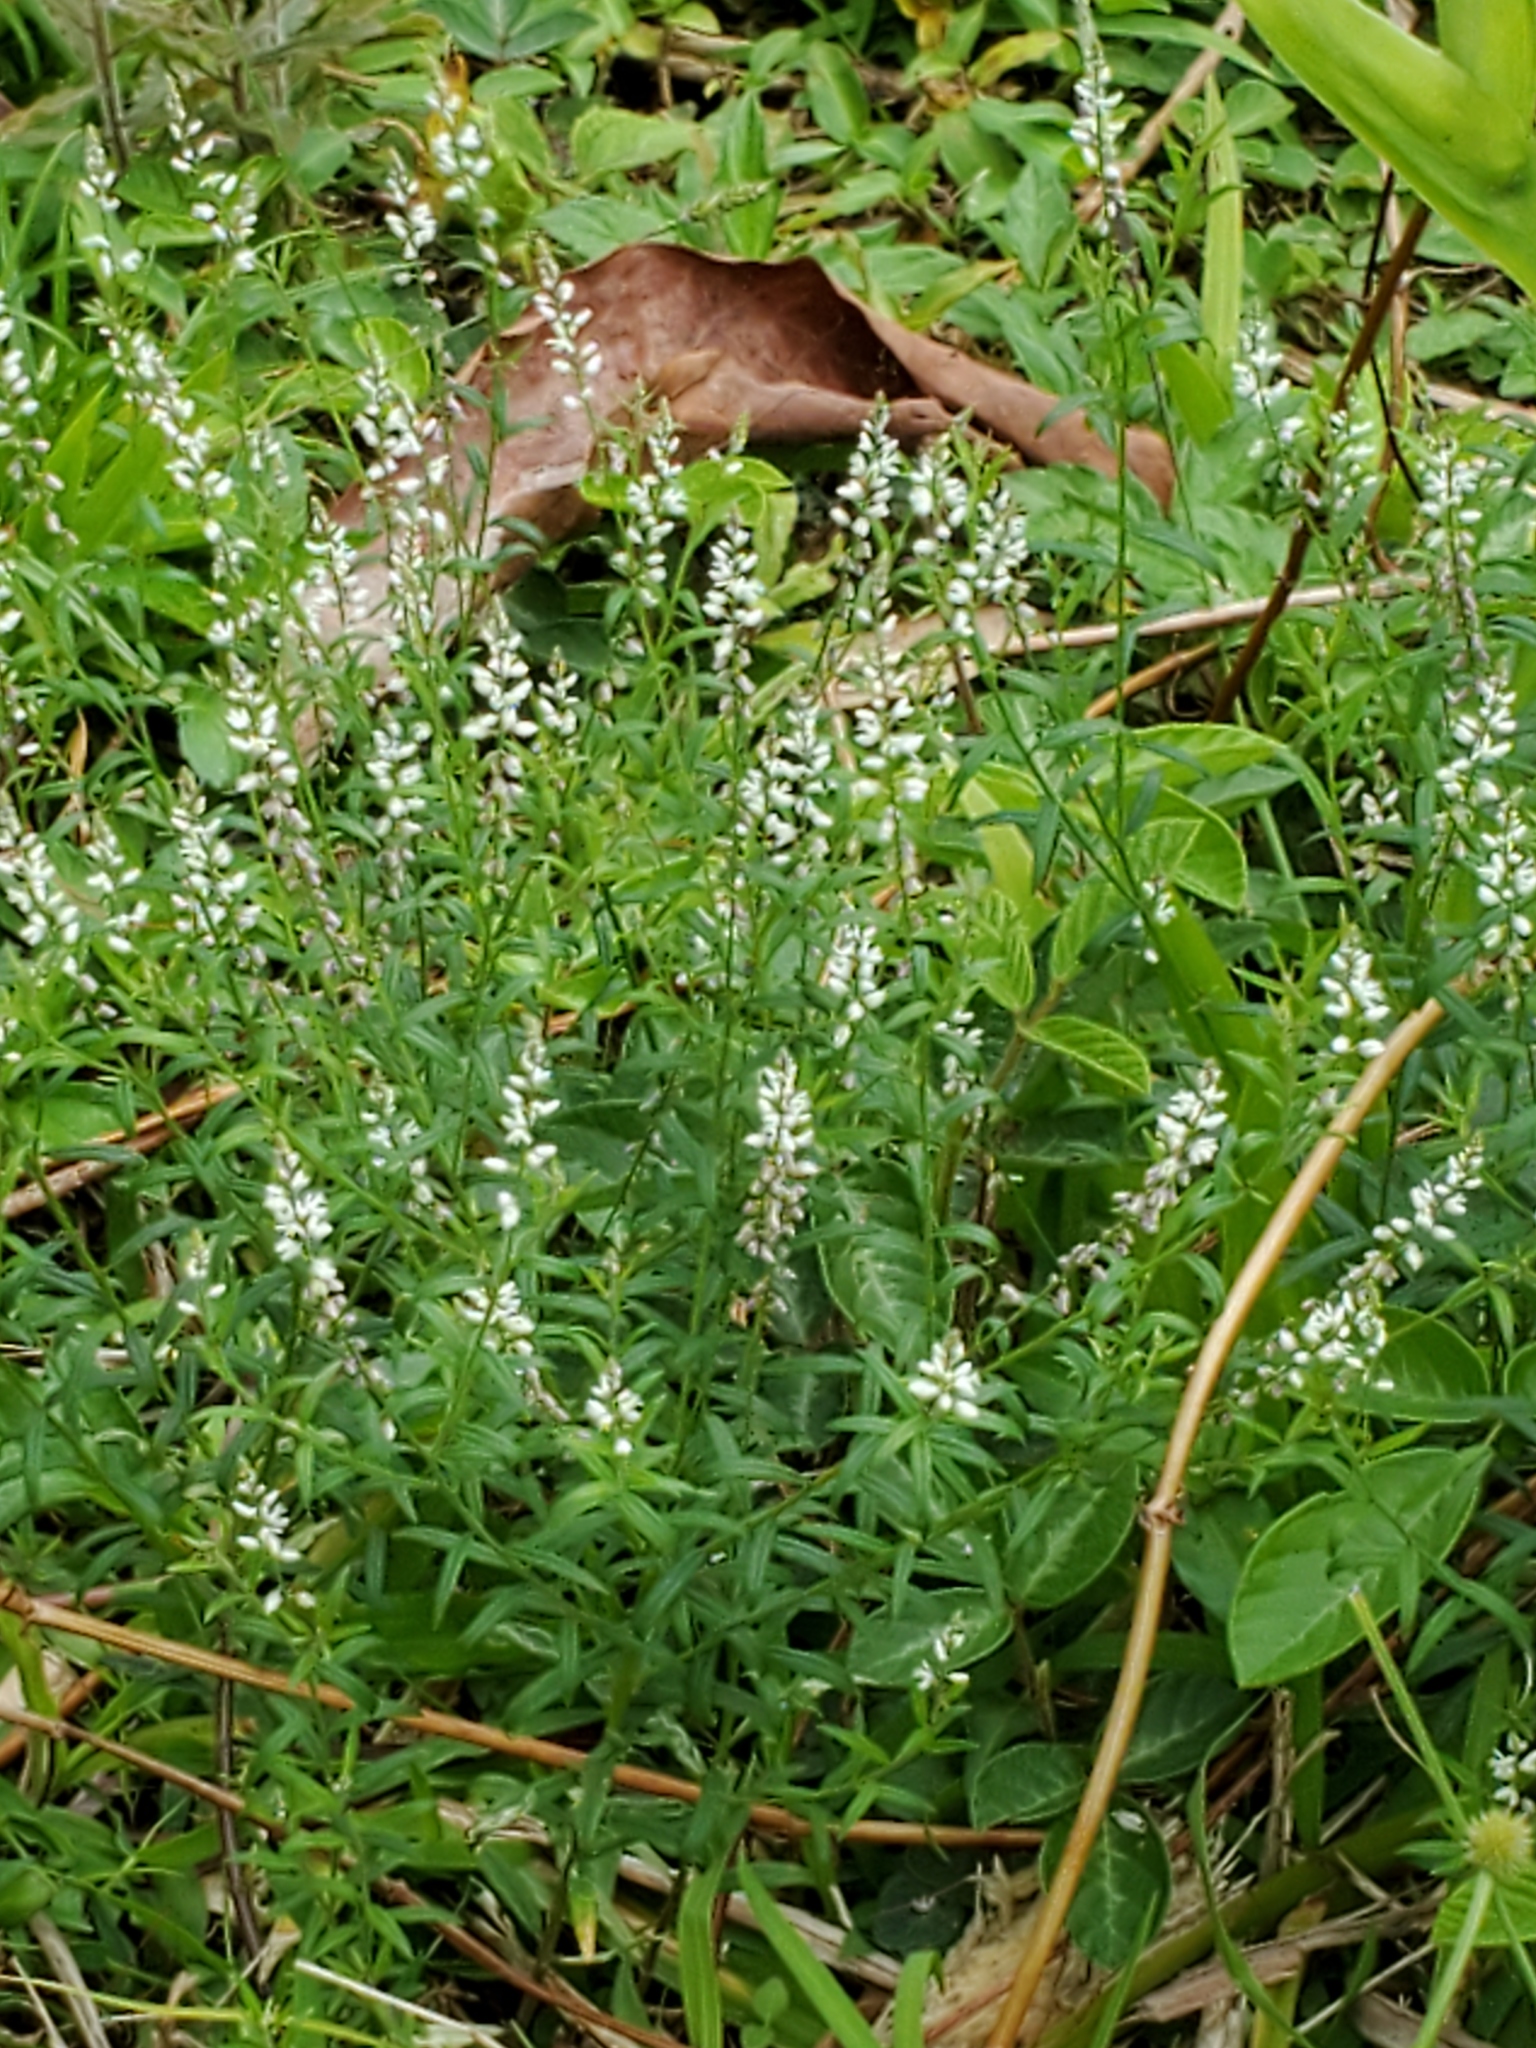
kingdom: Plantae
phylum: Tracheophyta
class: Magnoliopsida
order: Fabales
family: Polygalaceae
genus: Polygala
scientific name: Polygala paniculata
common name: Orosne
